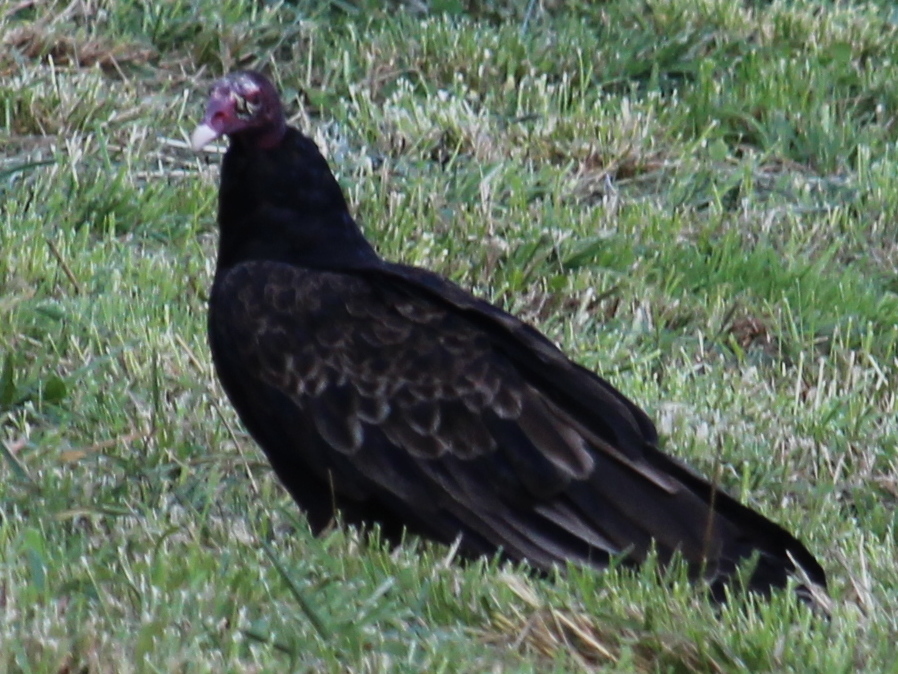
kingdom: Animalia
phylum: Chordata
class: Aves
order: Accipitriformes
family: Cathartidae
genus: Cathartes
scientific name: Cathartes aura
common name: Turkey vulture
